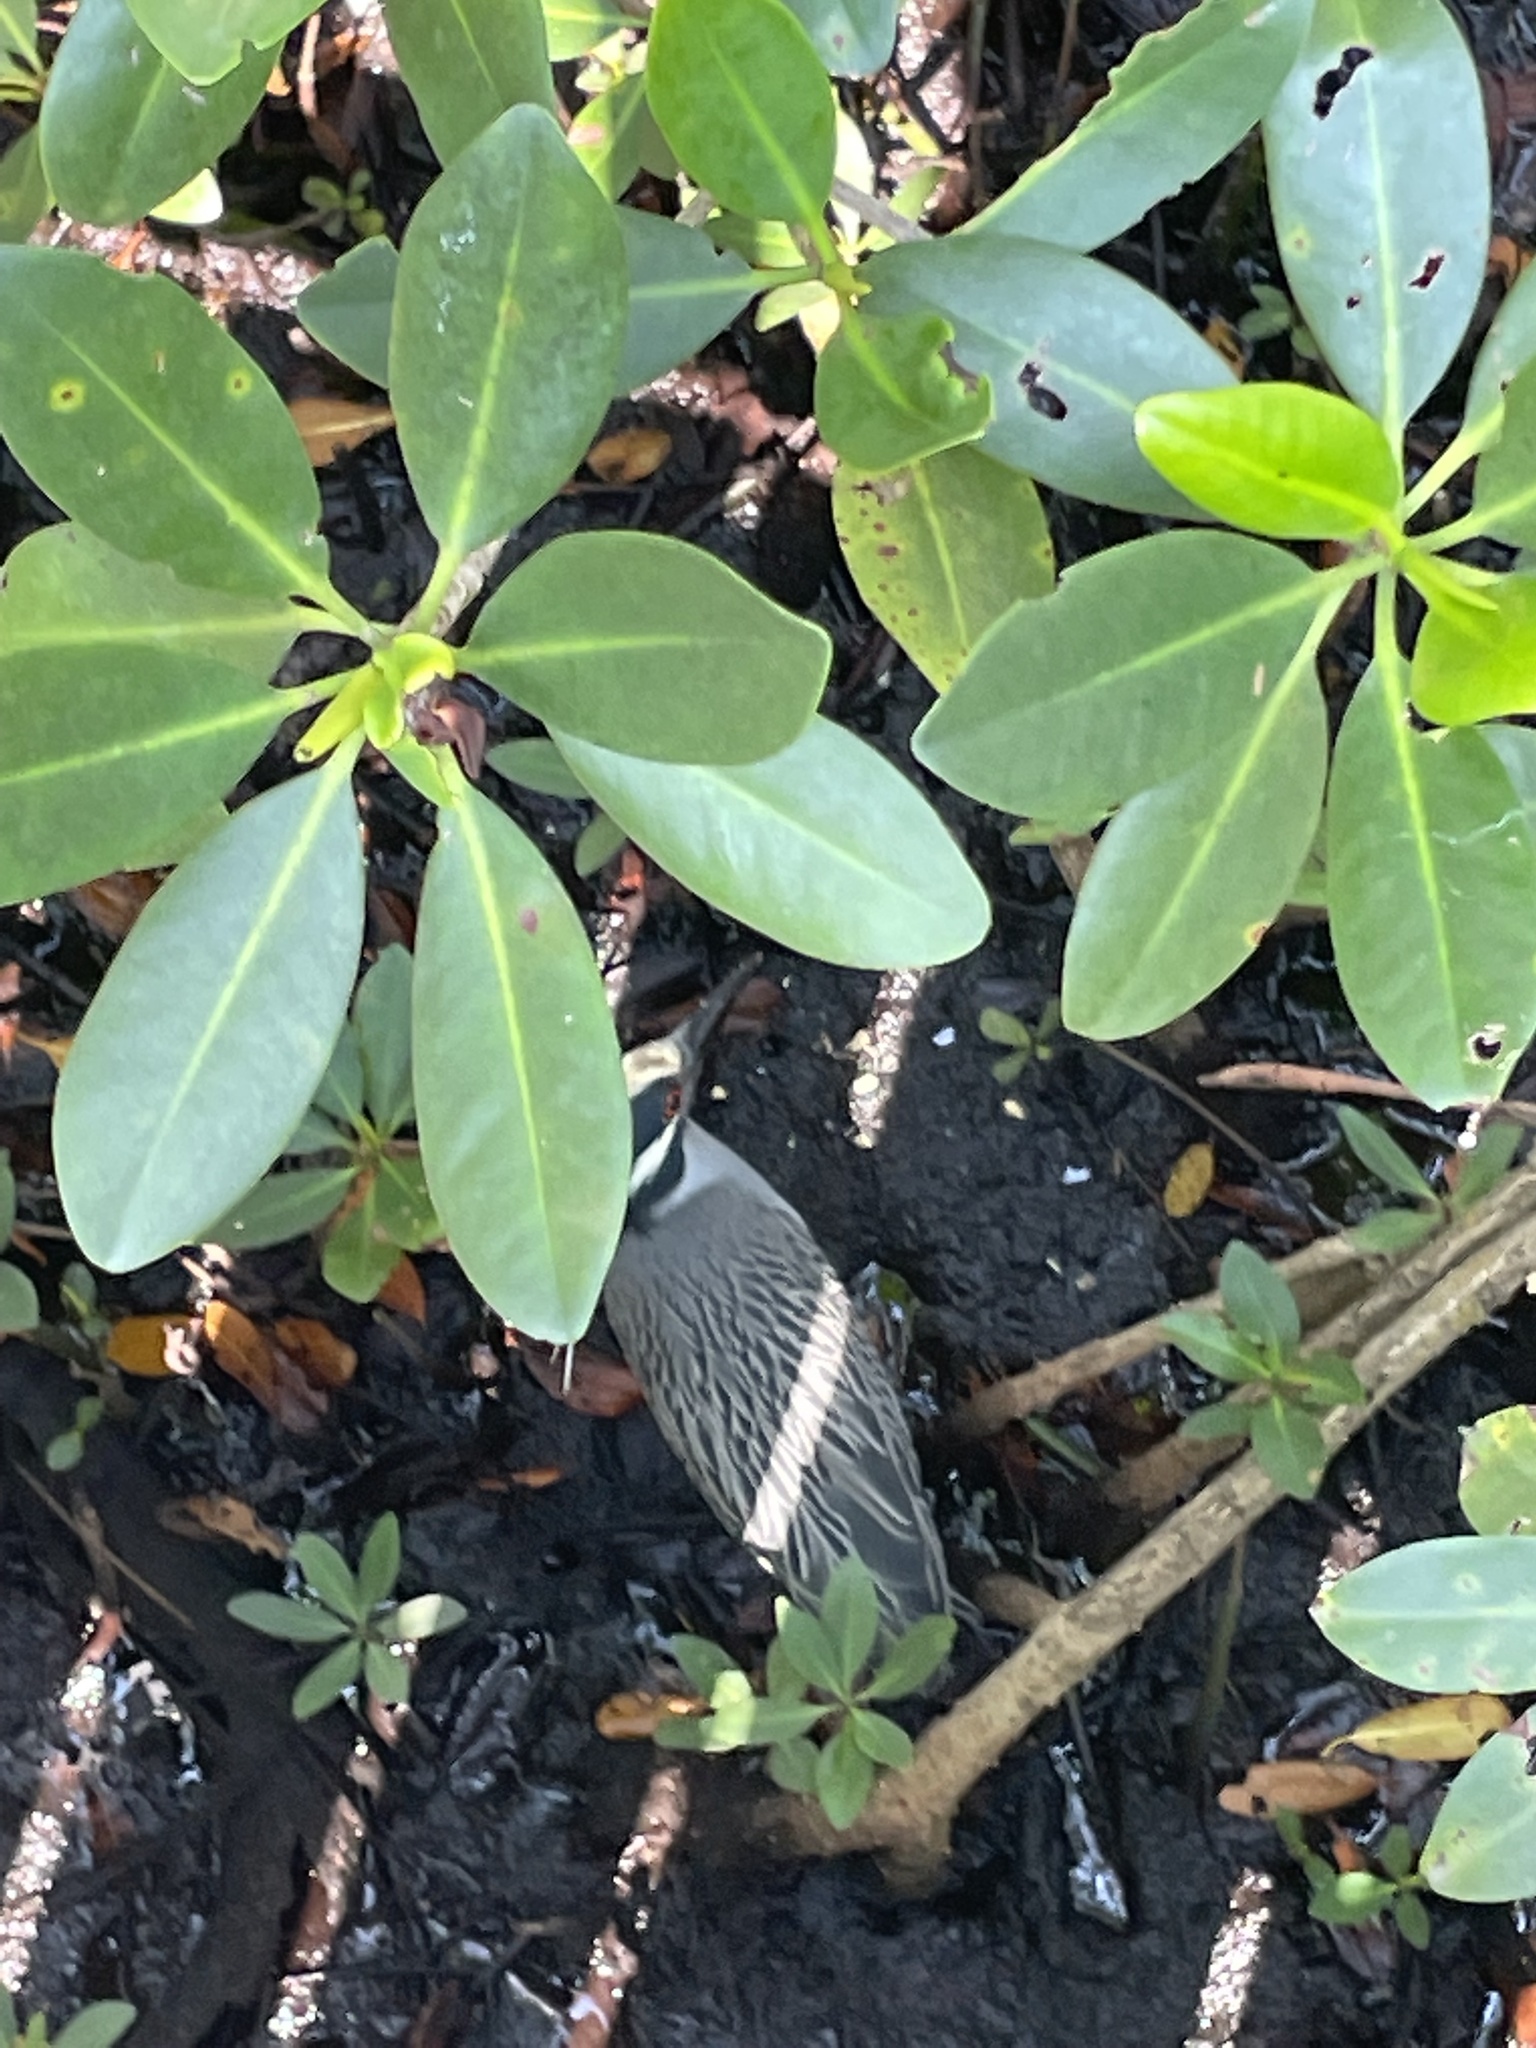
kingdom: Animalia
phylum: Chordata
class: Aves
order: Pelecaniformes
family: Ardeidae
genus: Nyctanassa
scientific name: Nyctanassa violacea
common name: Yellow-crowned night heron
